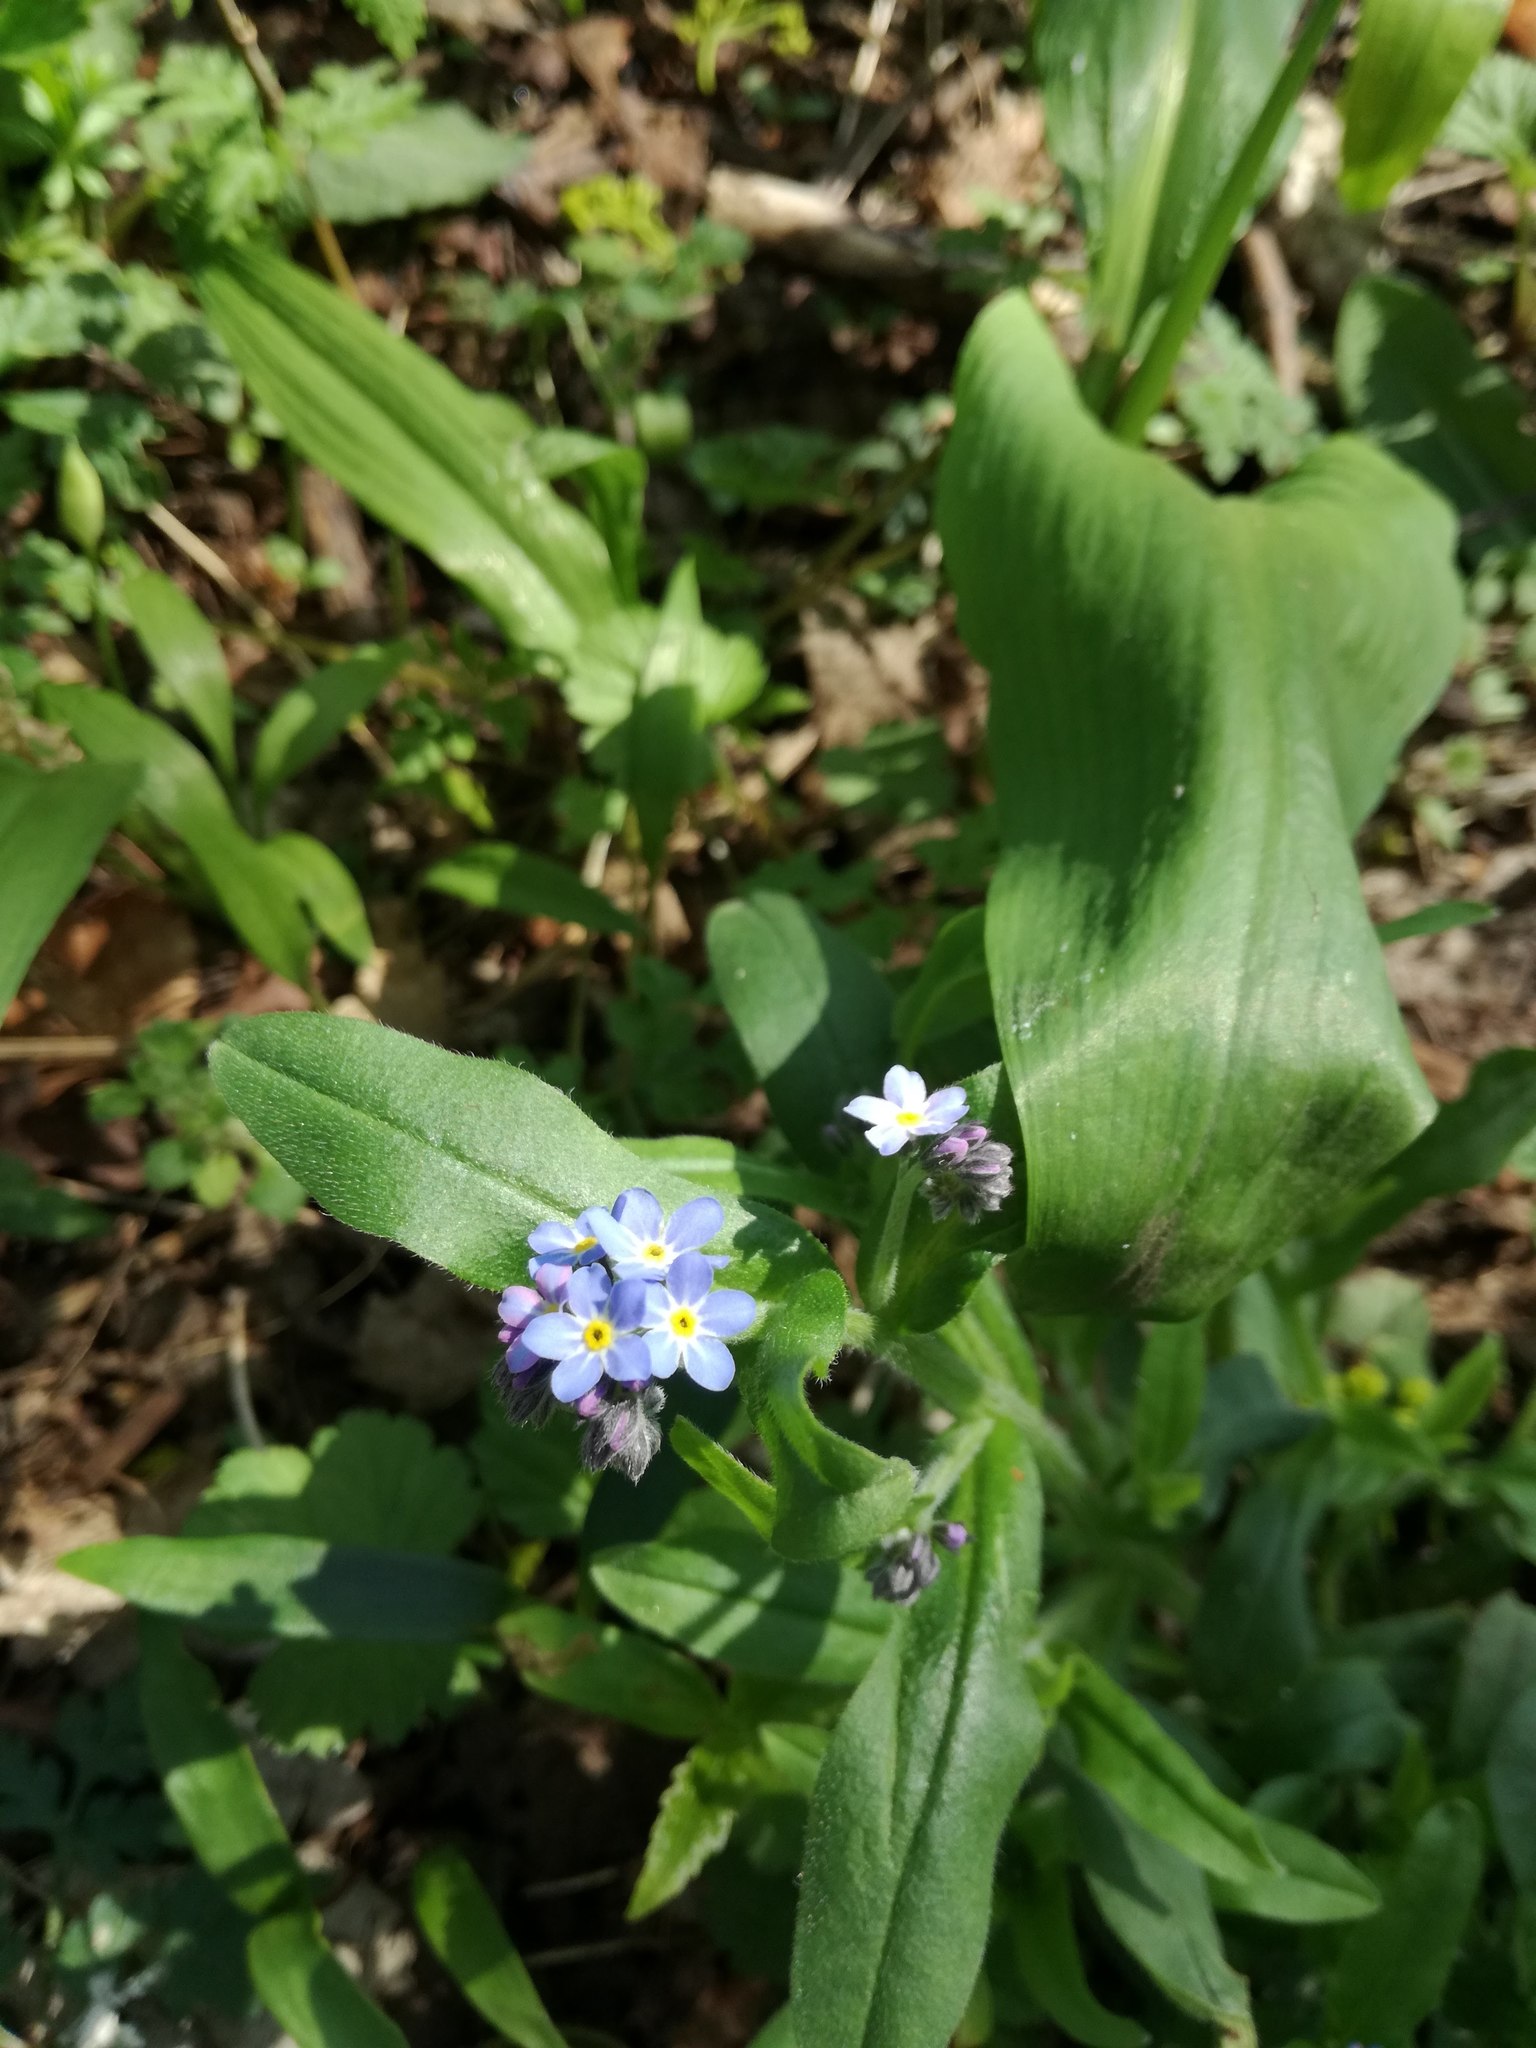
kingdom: Plantae
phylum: Tracheophyta
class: Magnoliopsida
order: Boraginales
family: Boraginaceae
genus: Myosotis
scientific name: Myosotis sylvatica
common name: Wood forget-me-not
